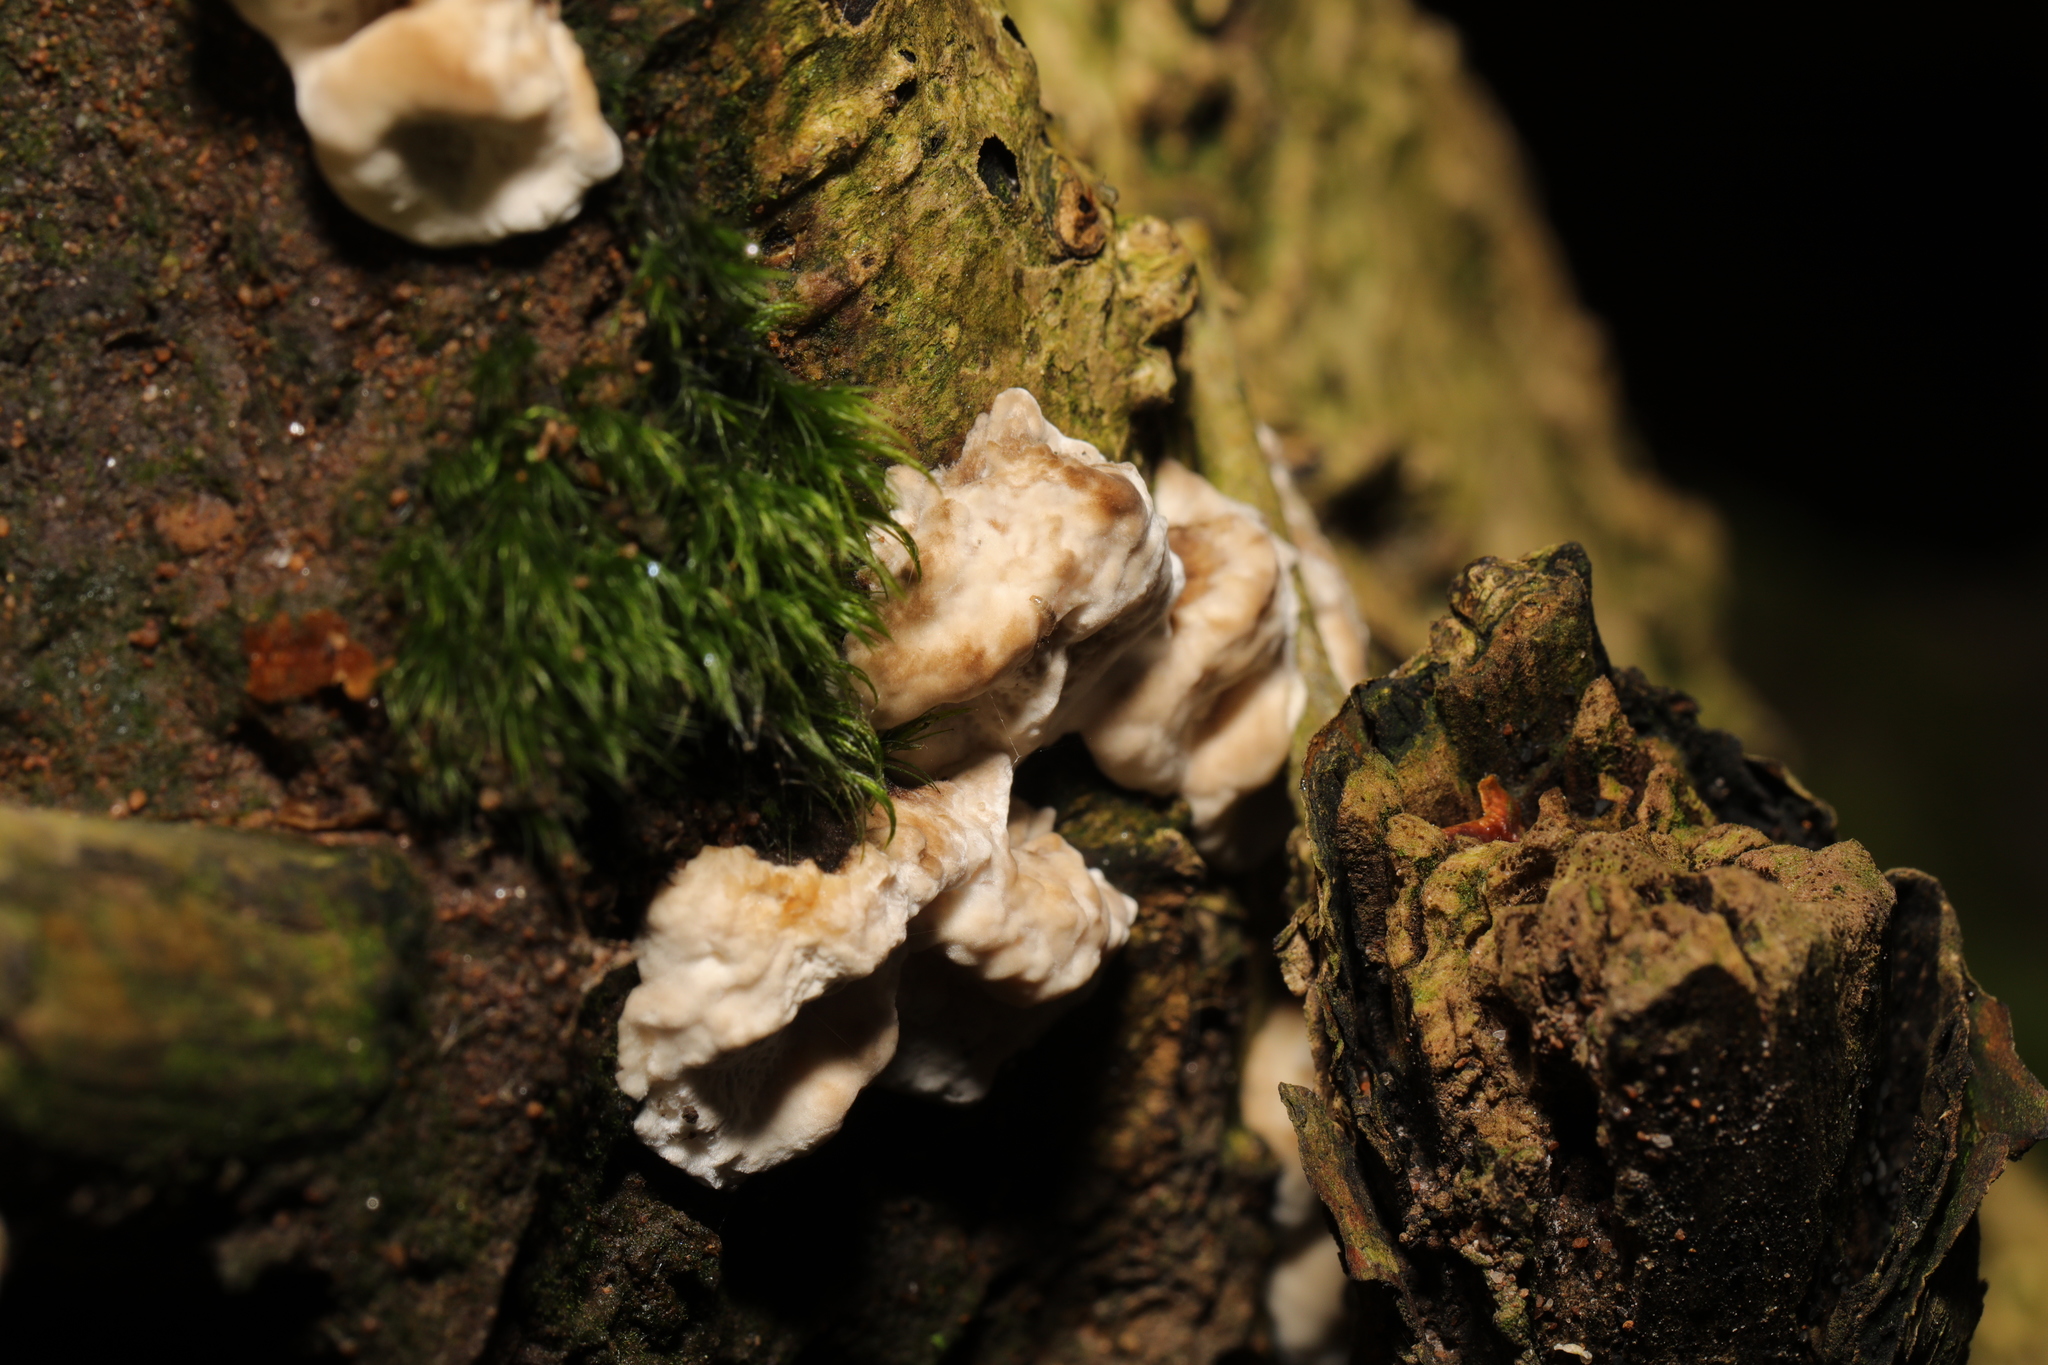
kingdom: Fungi
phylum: Basidiomycota
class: Agaricomycetes
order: Polyporales
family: Phanerochaetaceae
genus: Bjerkandera
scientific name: Bjerkandera adusta
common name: Smoky bracket
